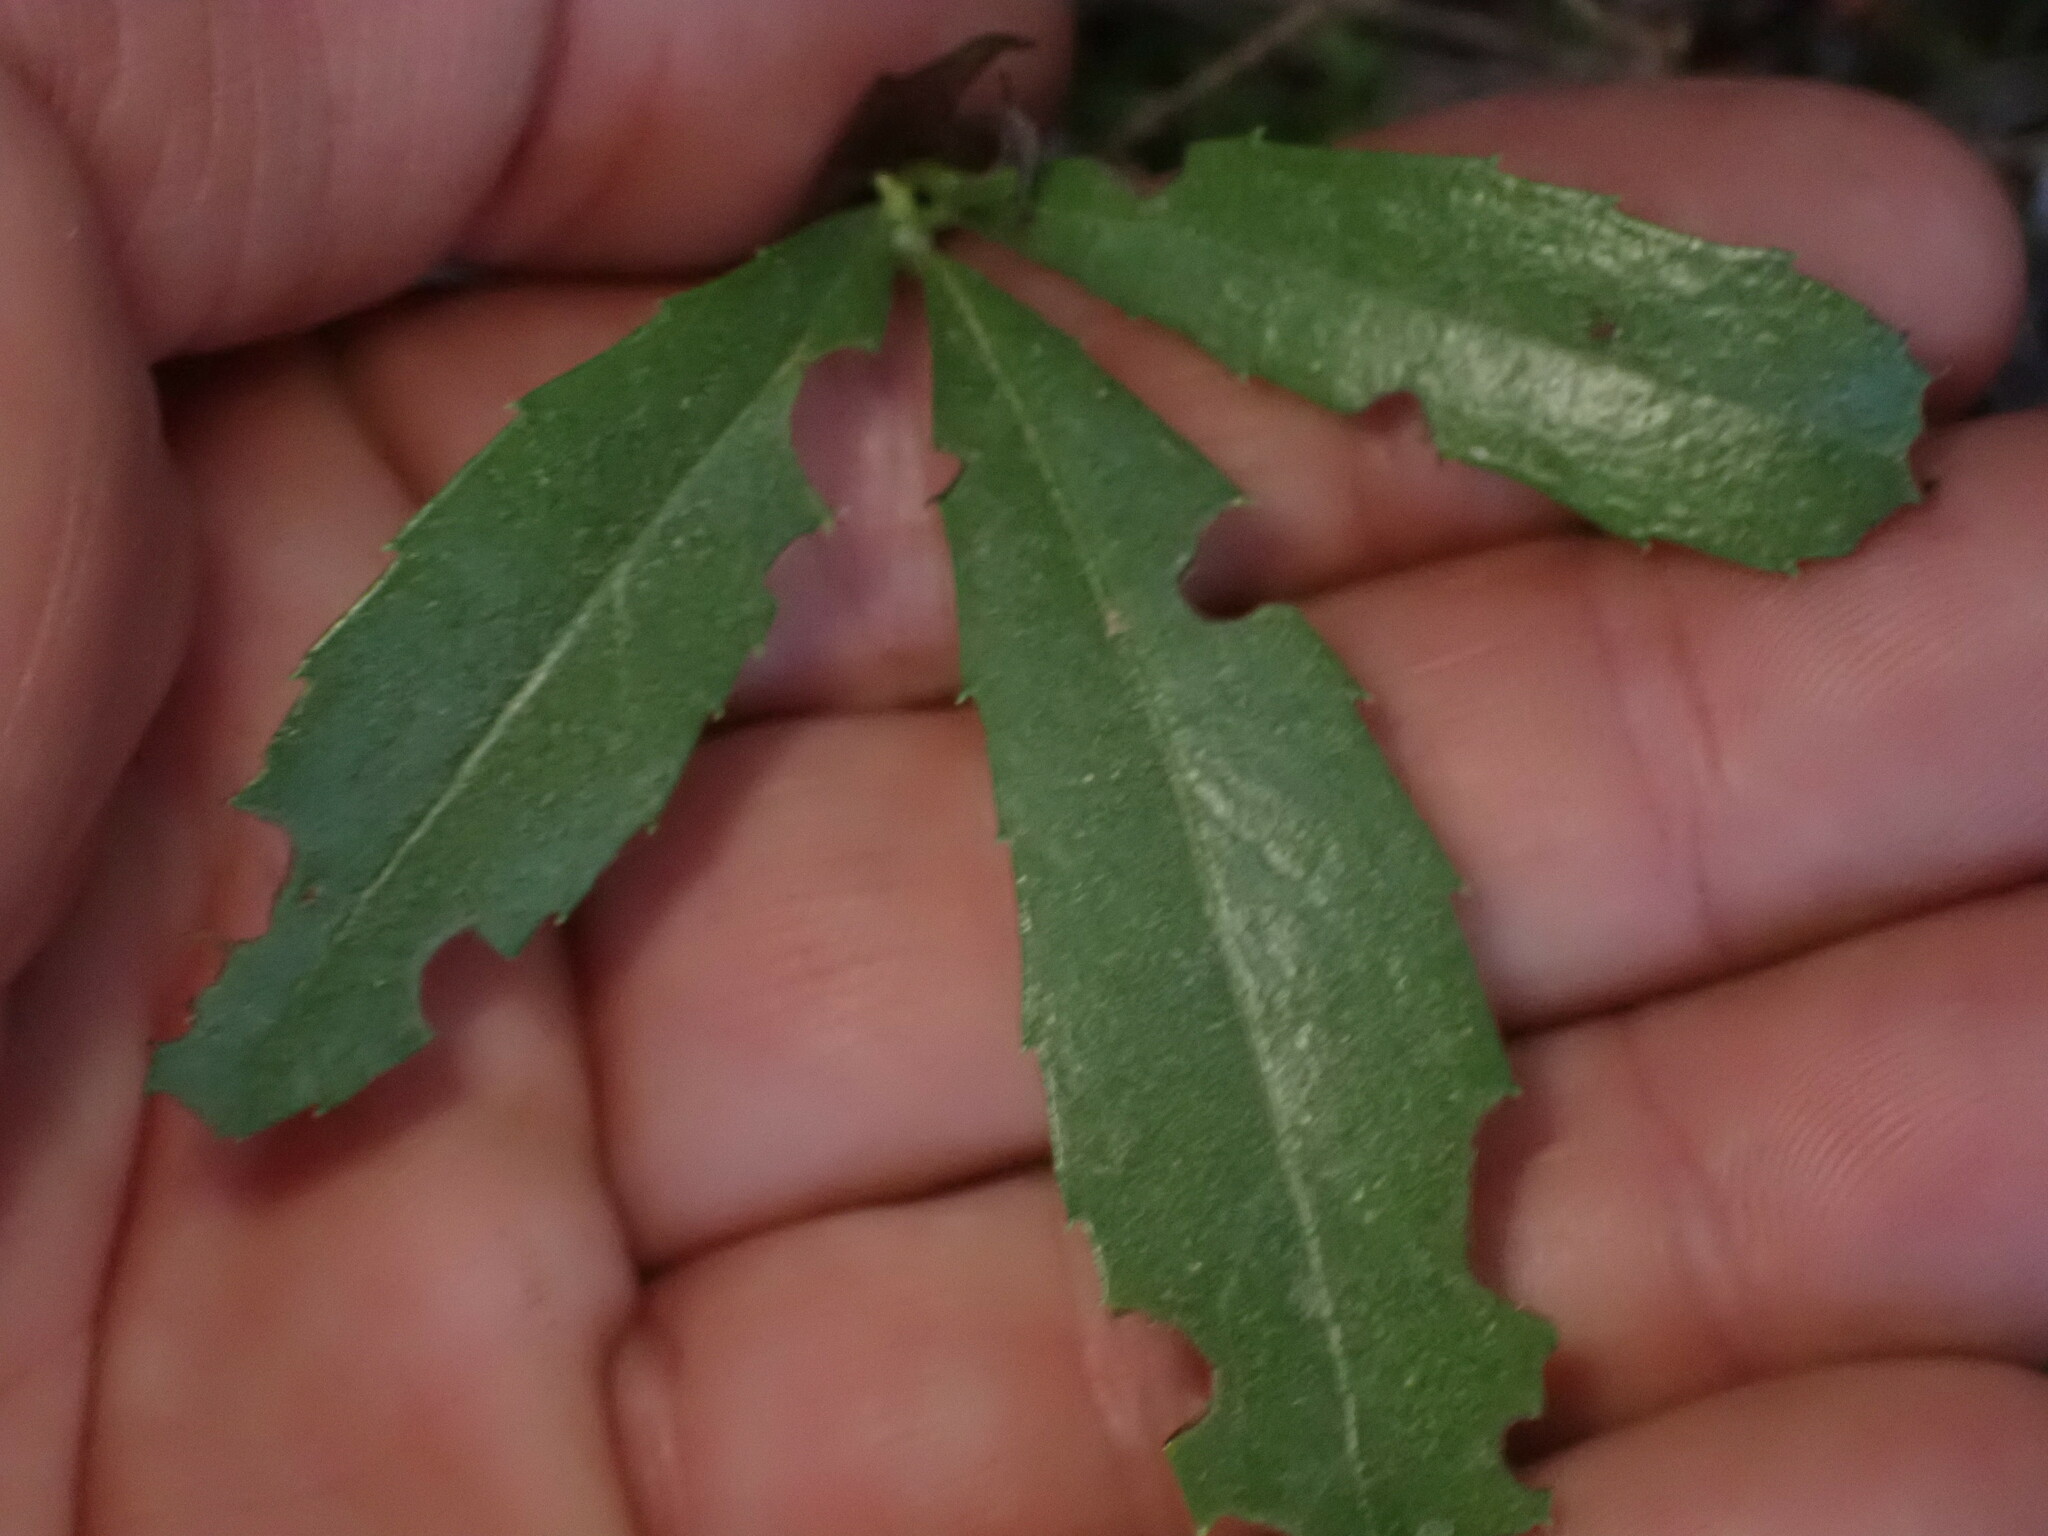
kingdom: Plantae
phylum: Tracheophyta
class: Magnoliopsida
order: Ericales
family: Ericaceae
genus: Chimaphila
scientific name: Chimaphila umbellata
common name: Pipsissewa
